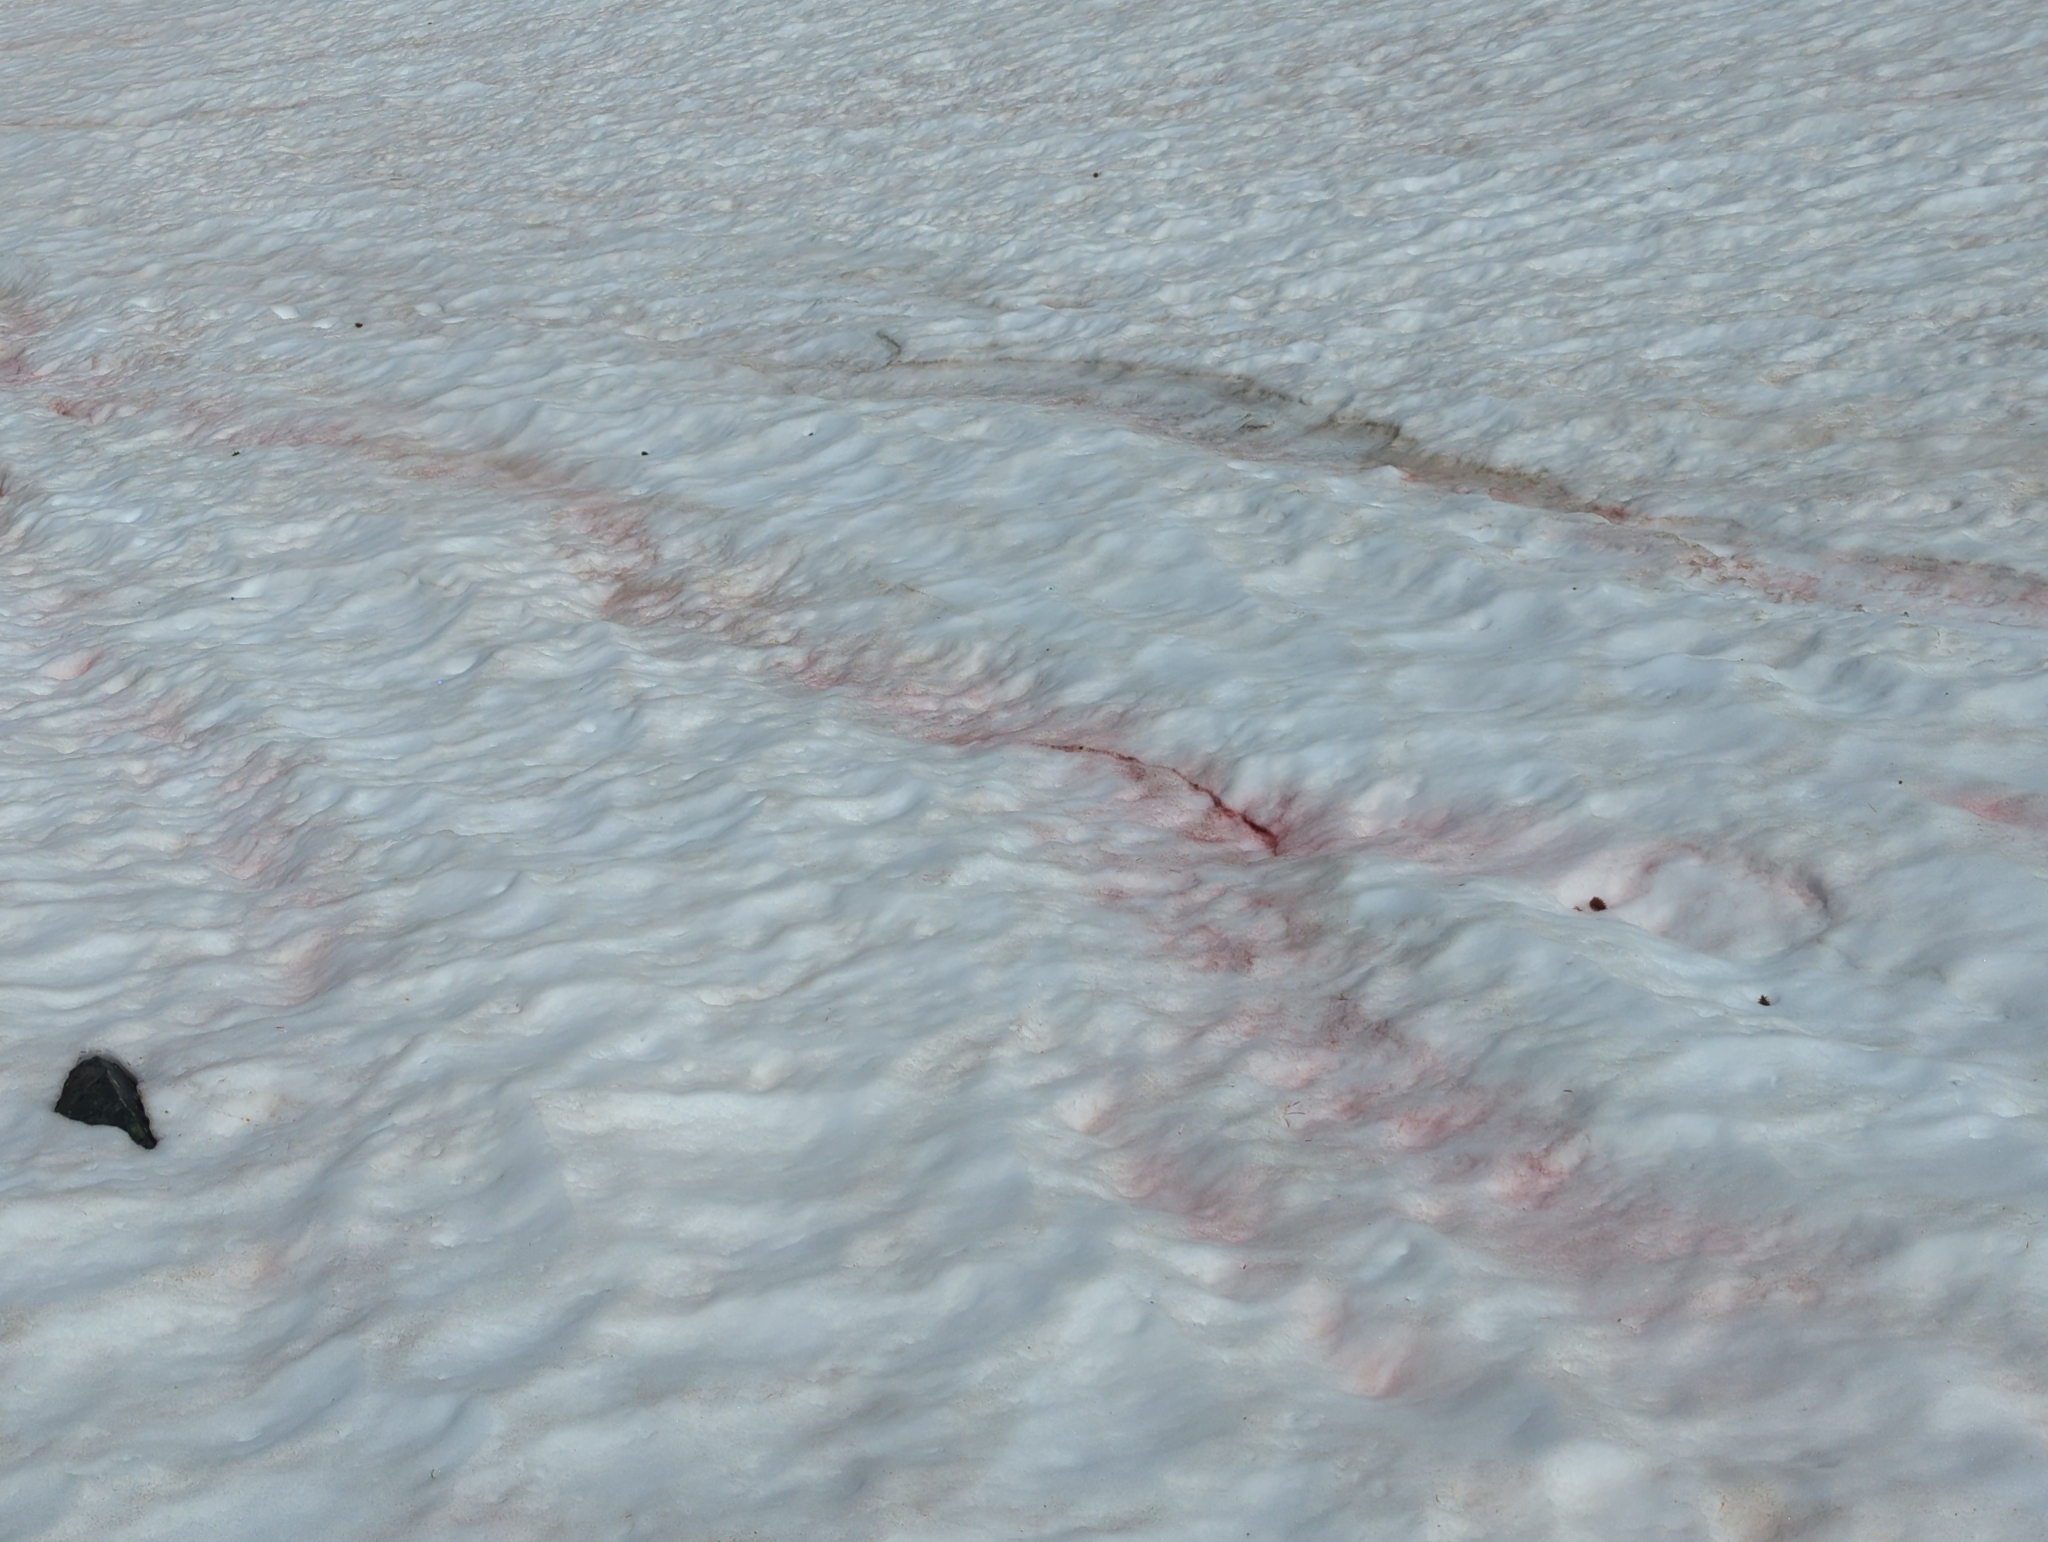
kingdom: Plantae
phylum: Chlorophyta
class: Chlorophyceae
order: Volvocales
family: Chlamydomonadaceae
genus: Chlamydomonas
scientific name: Chlamydomonas nivalis
